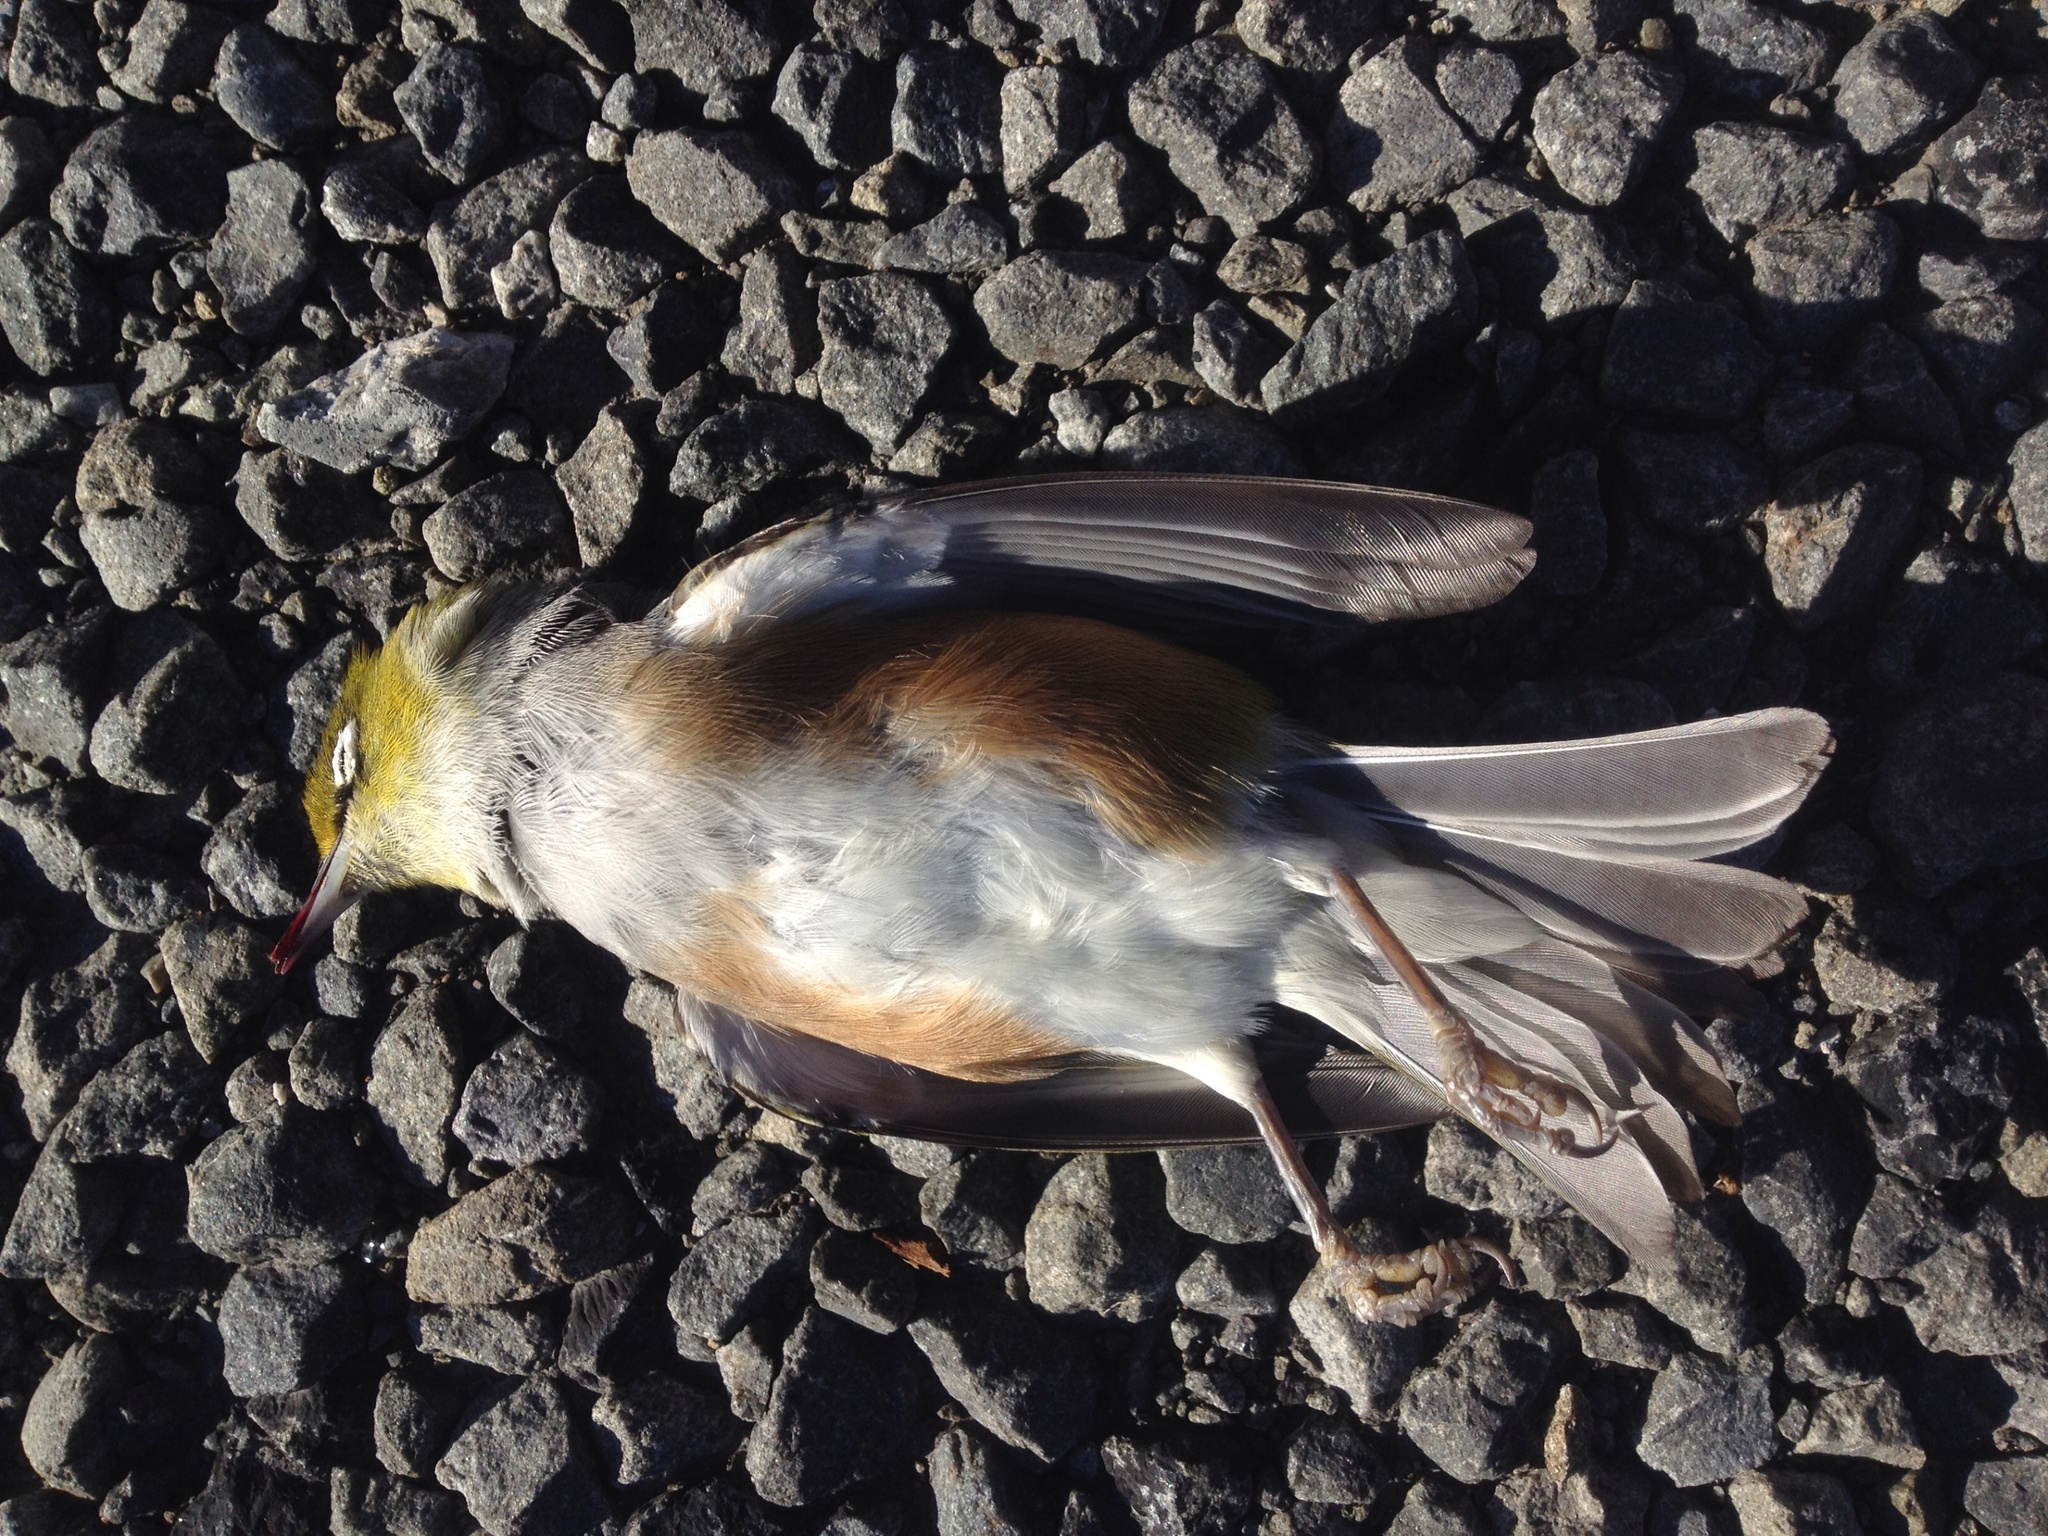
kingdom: Animalia
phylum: Chordata
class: Aves
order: Passeriformes
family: Zosteropidae
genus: Zosterops
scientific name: Zosterops lateralis
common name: Silvereye
